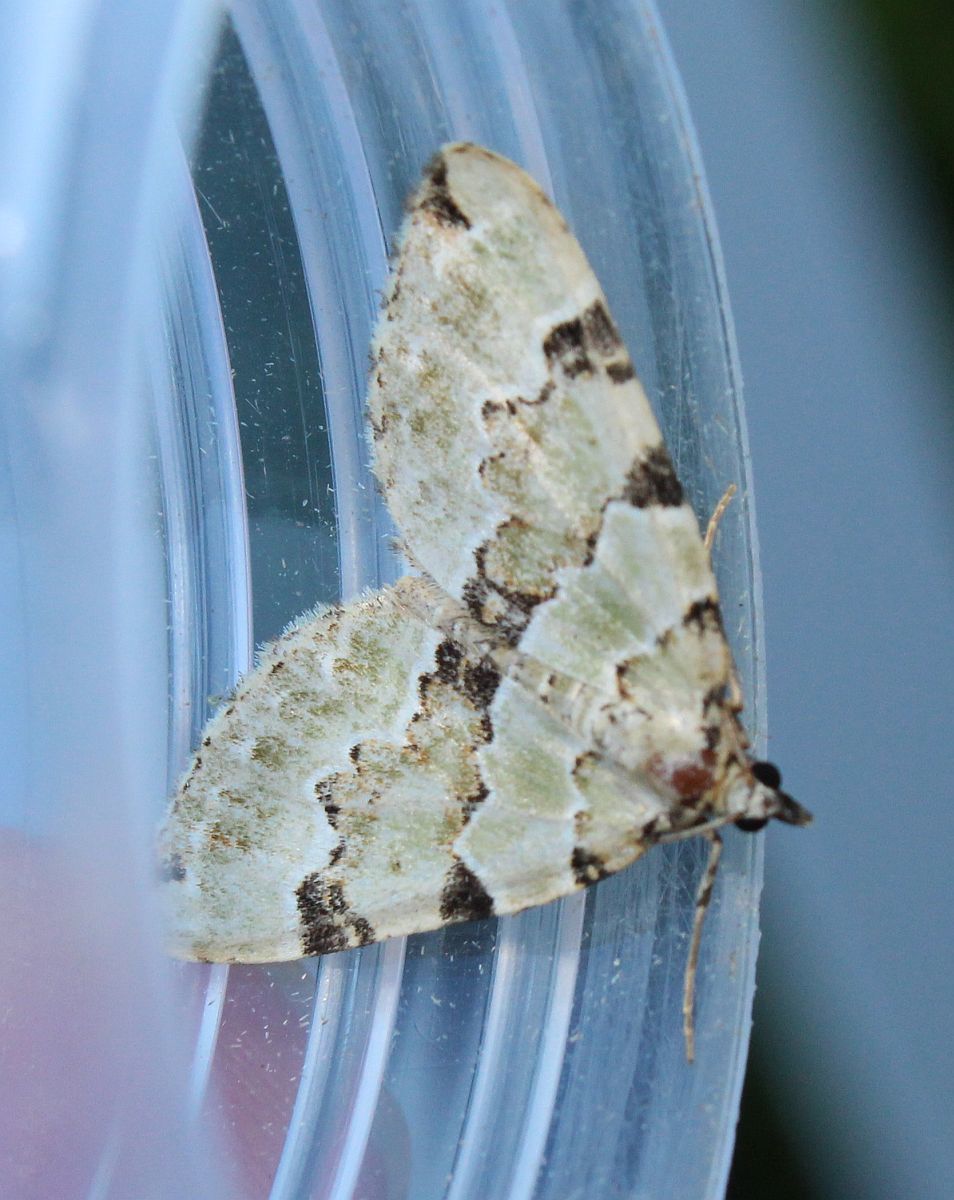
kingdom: Animalia
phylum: Arthropoda
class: Insecta
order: Lepidoptera
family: Geometridae
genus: Colostygia
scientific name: Colostygia pectinataria
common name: Green carpet
